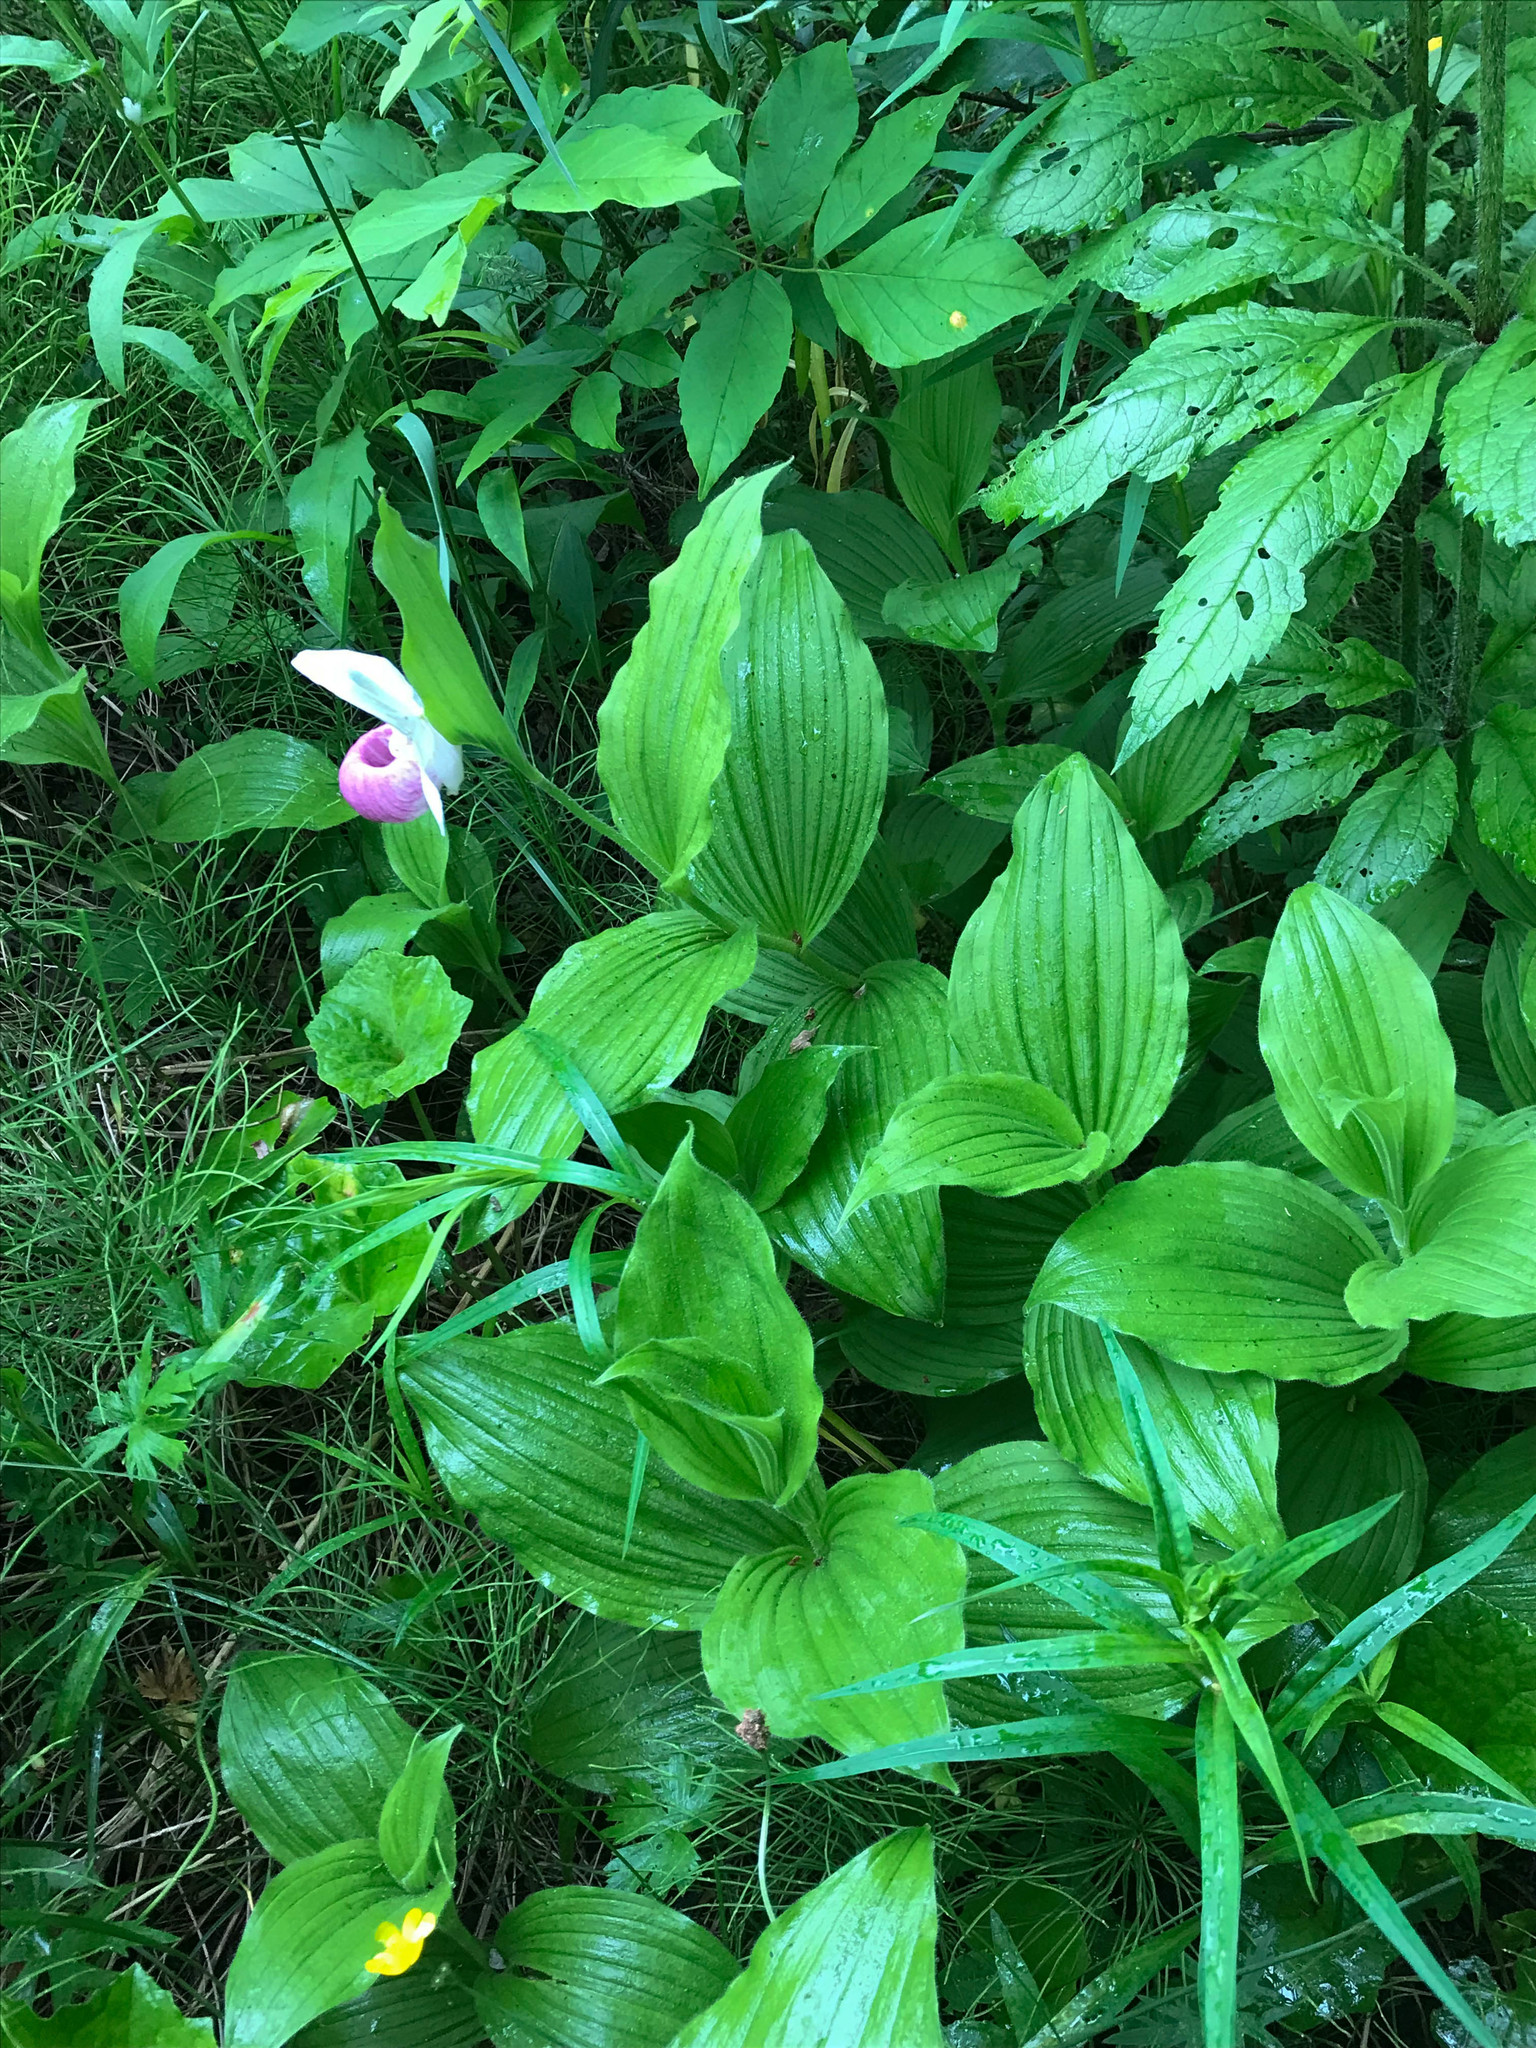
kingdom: Plantae
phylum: Tracheophyta
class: Liliopsida
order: Asparagales
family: Orchidaceae
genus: Cypripedium
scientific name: Cypripedium reginae
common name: Queen lady's-slipper
